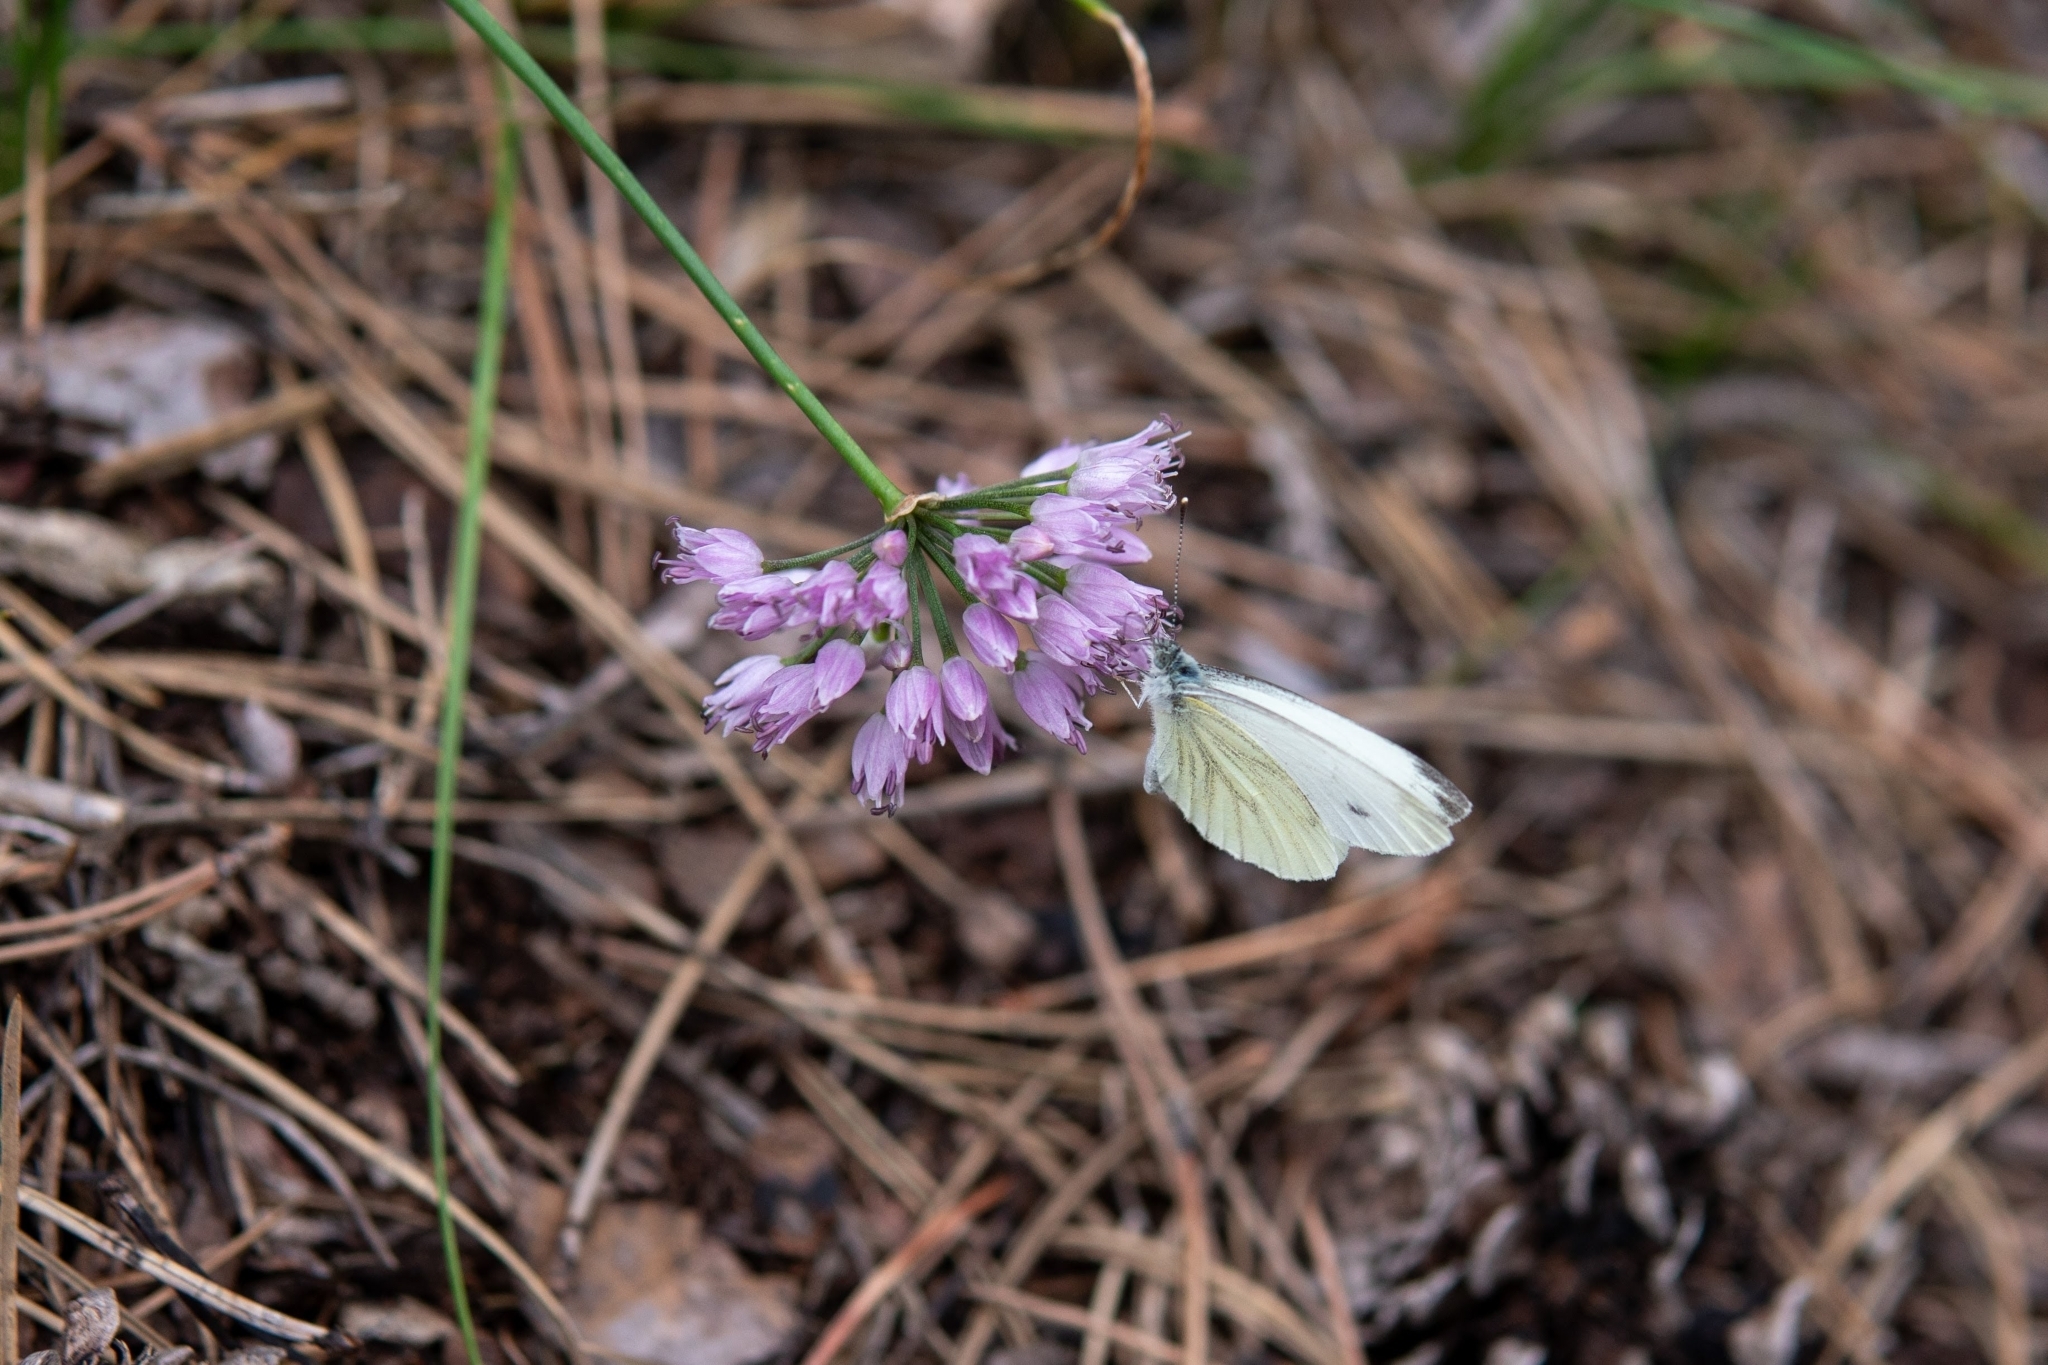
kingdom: Plantae
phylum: Tracheophyta
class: Liliopsida
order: Asparagales
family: Amaryllidaceae
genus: Allium
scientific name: Allium lusitanicum
